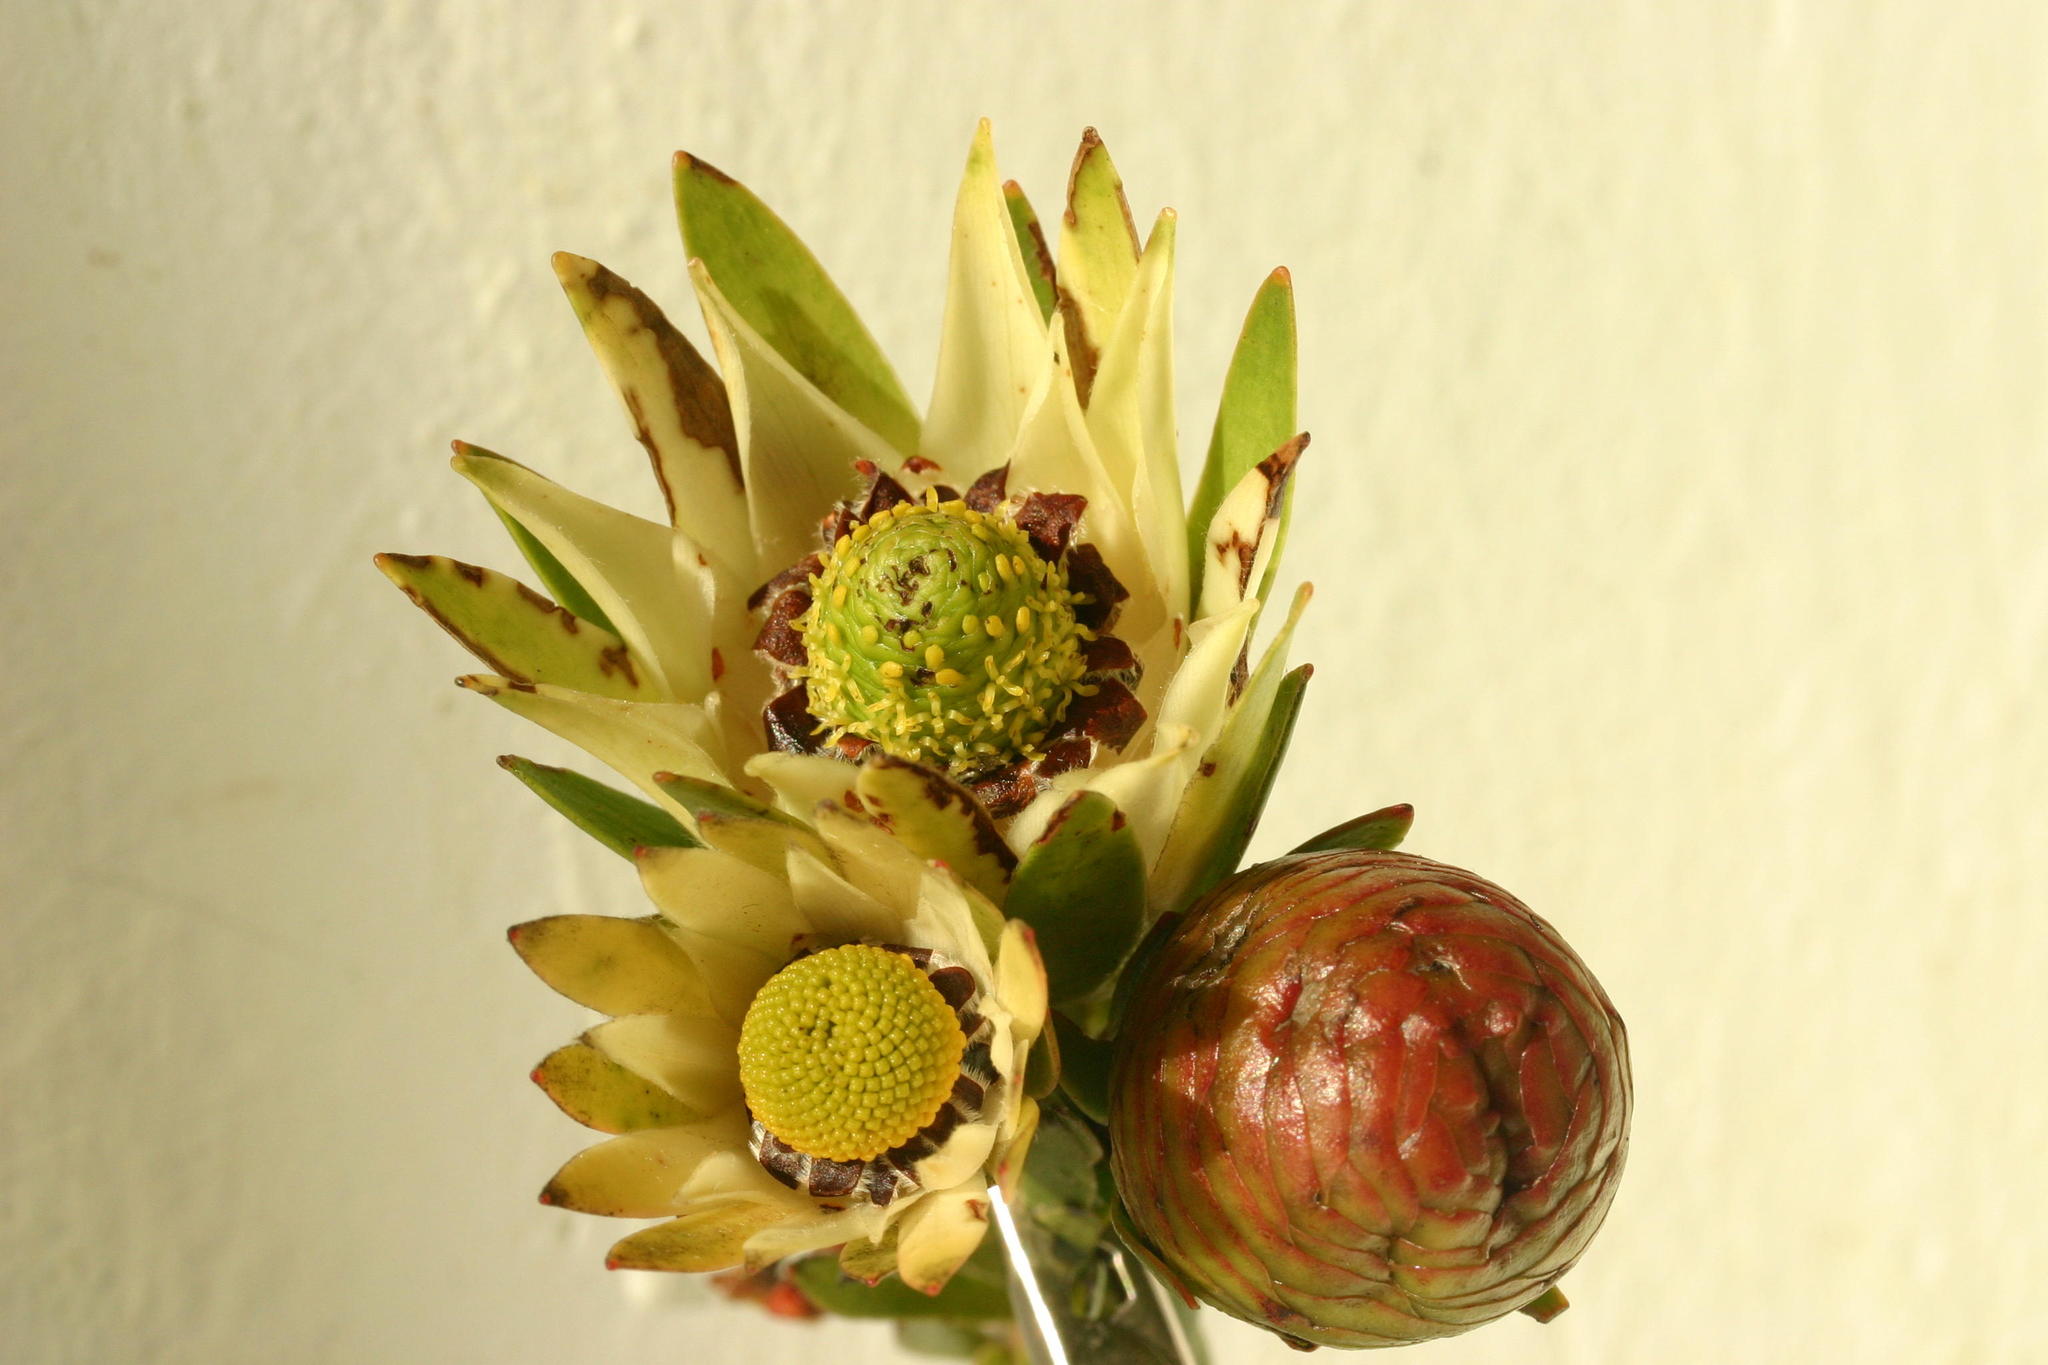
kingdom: Plantae
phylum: Tracheophyta
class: Magnoliopsida
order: Proteales
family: Proteaceae
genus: Leucadendron
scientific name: Leucadendron spissifolium
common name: Spear-leaf conebush
